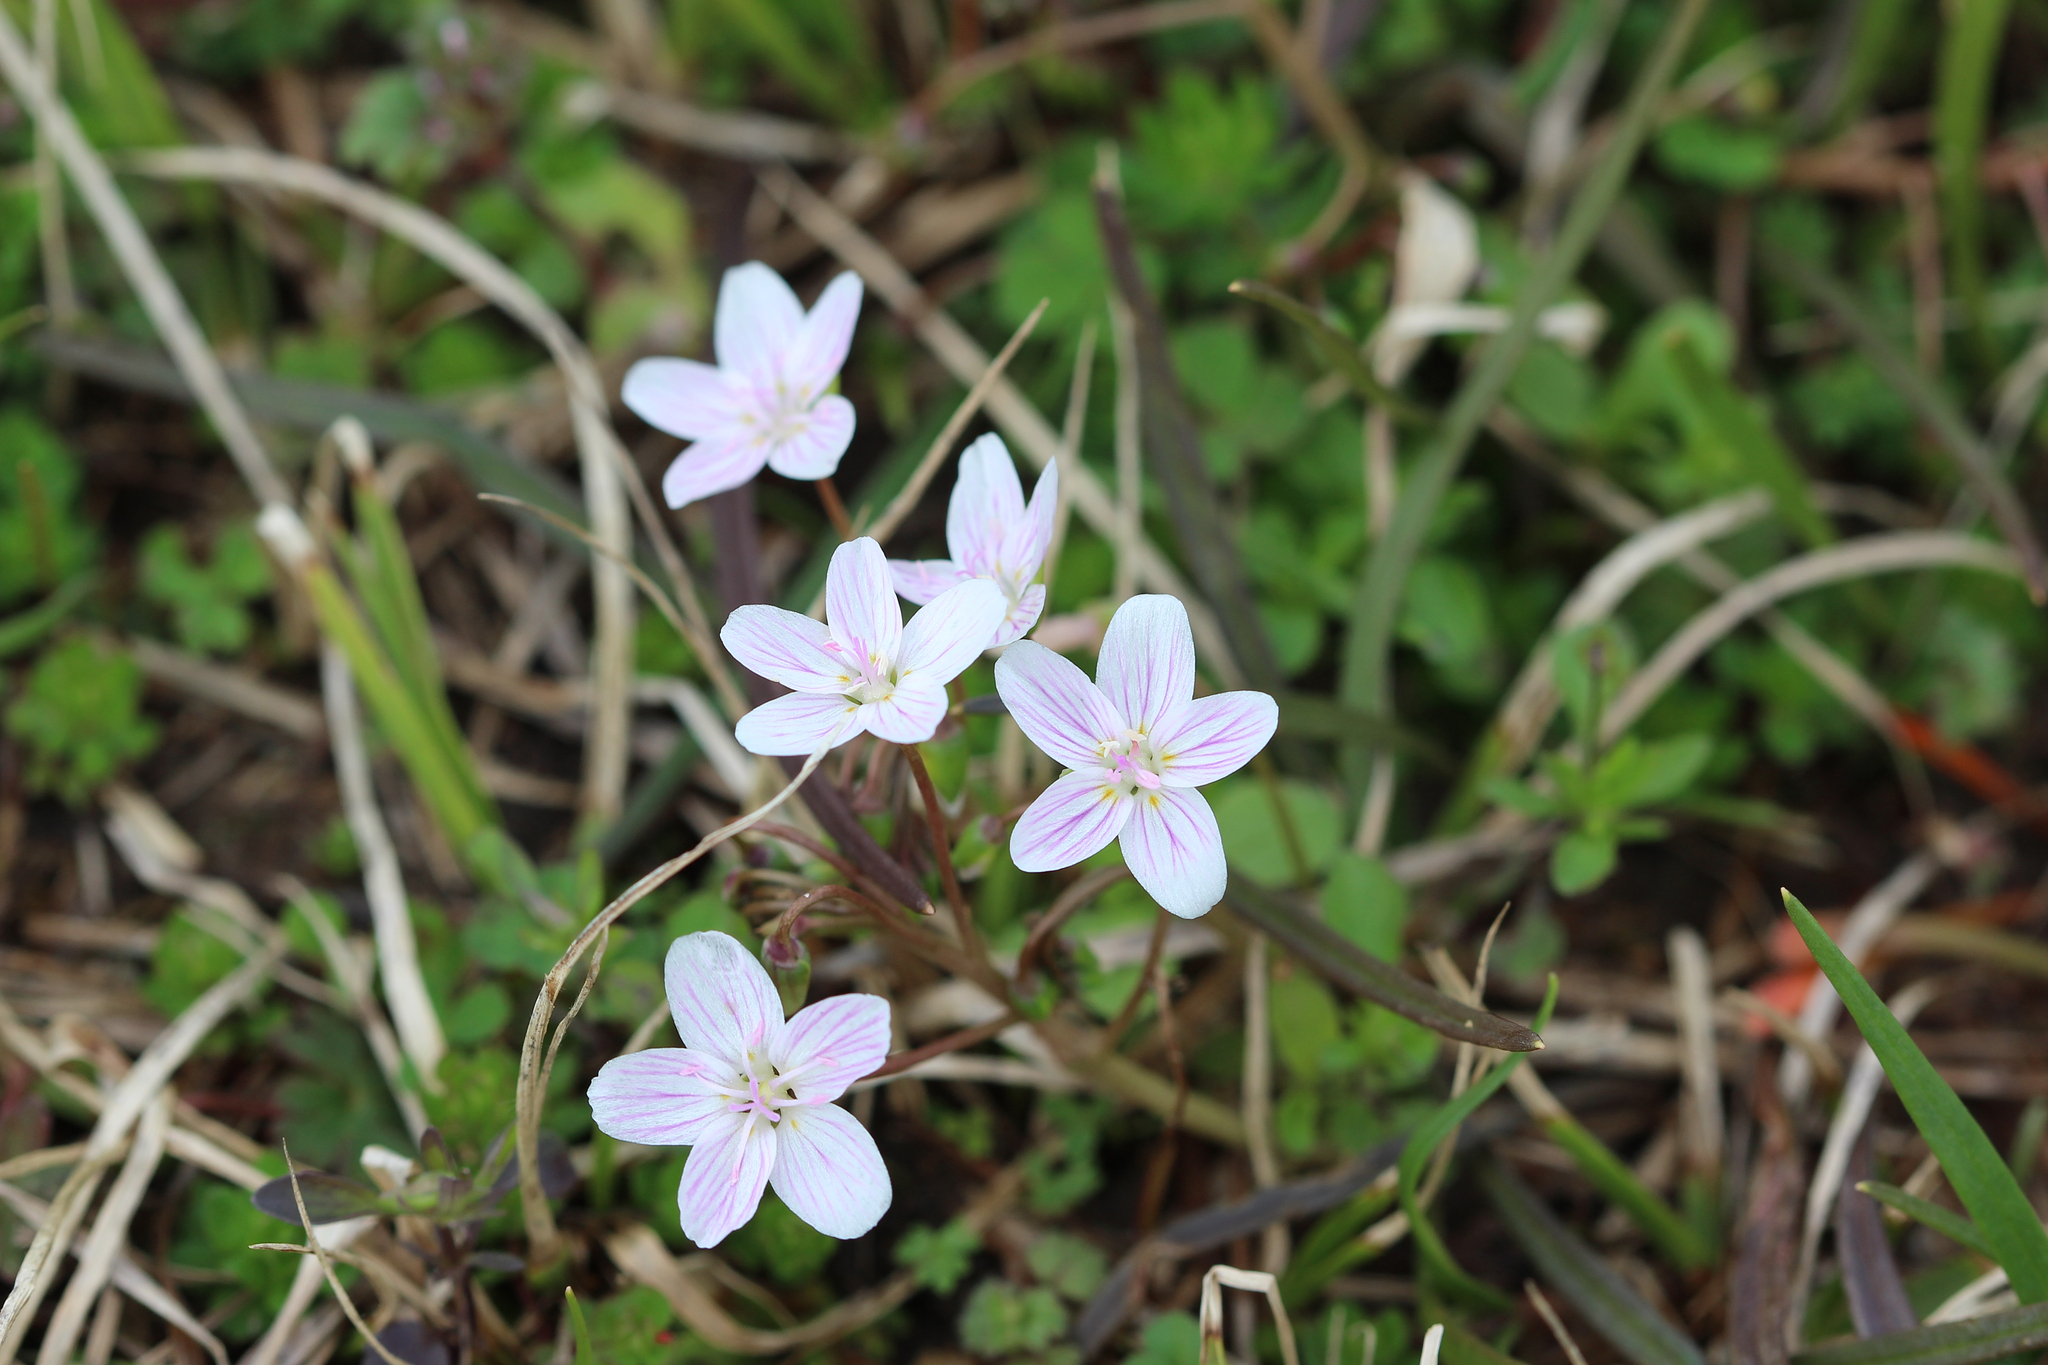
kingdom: Plantae
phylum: Tracheophyta
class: Magnoliopsida
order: Caryophyllales
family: Montiaceae
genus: Claytonia
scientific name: Claytonia virginica
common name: Virginia springbeauty
